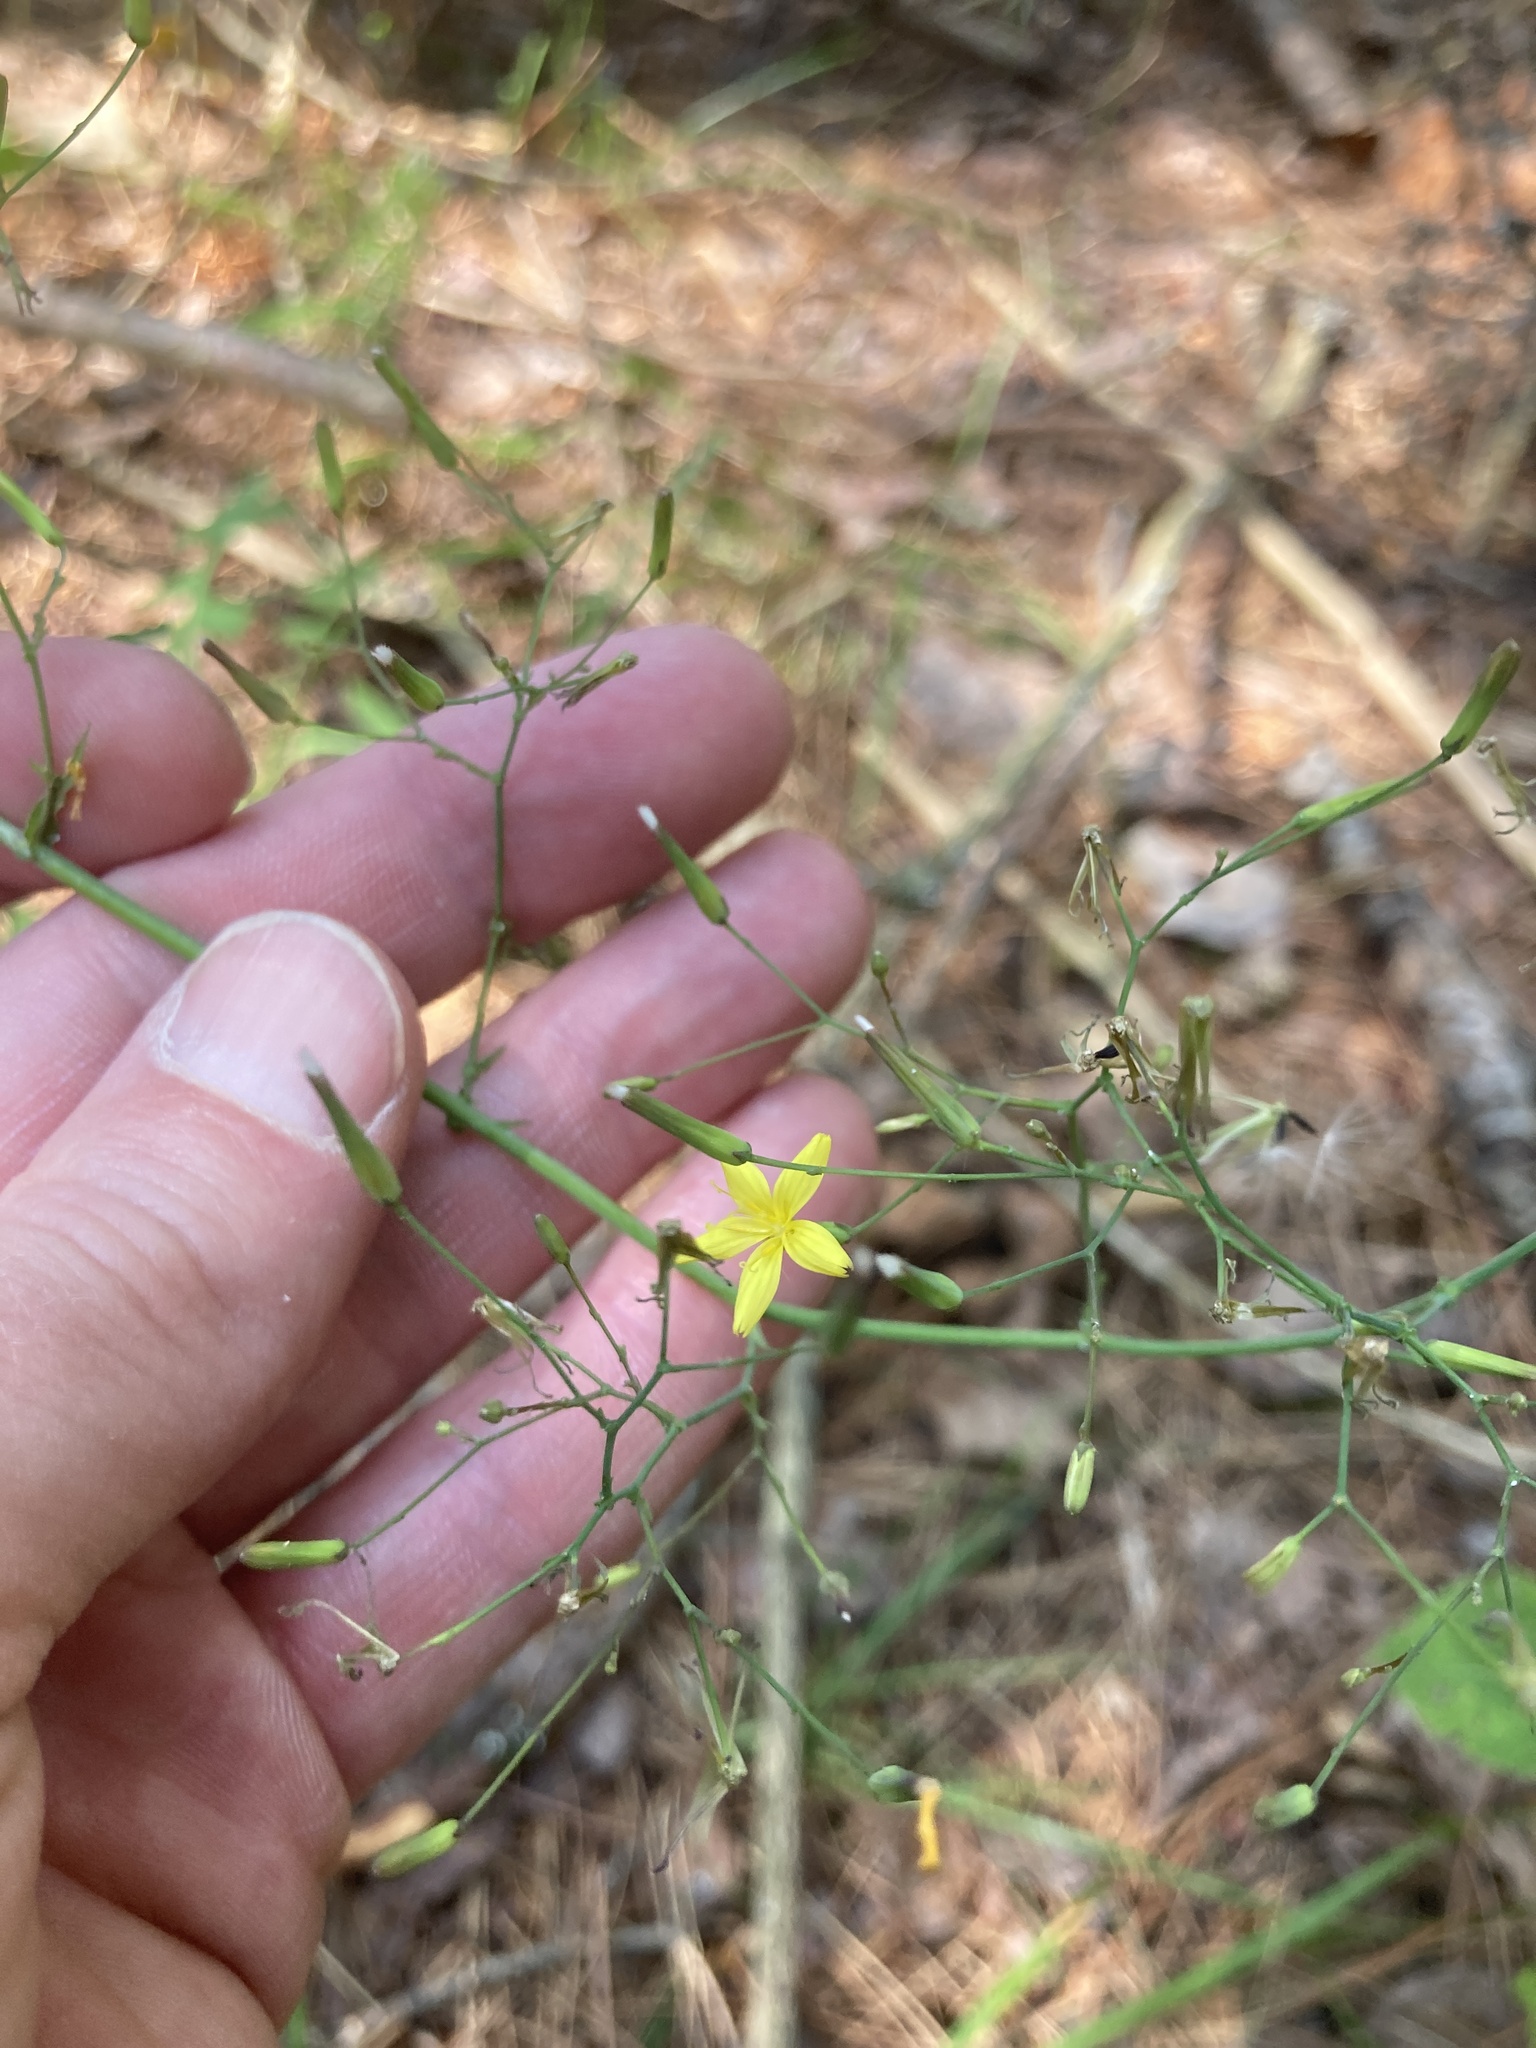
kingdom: Plantae
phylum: Tracheophyta
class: Magnoliopsida
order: Asterales
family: Asteraceae
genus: Mycelis
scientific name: Mycelis muralis
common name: Wall lettuce
